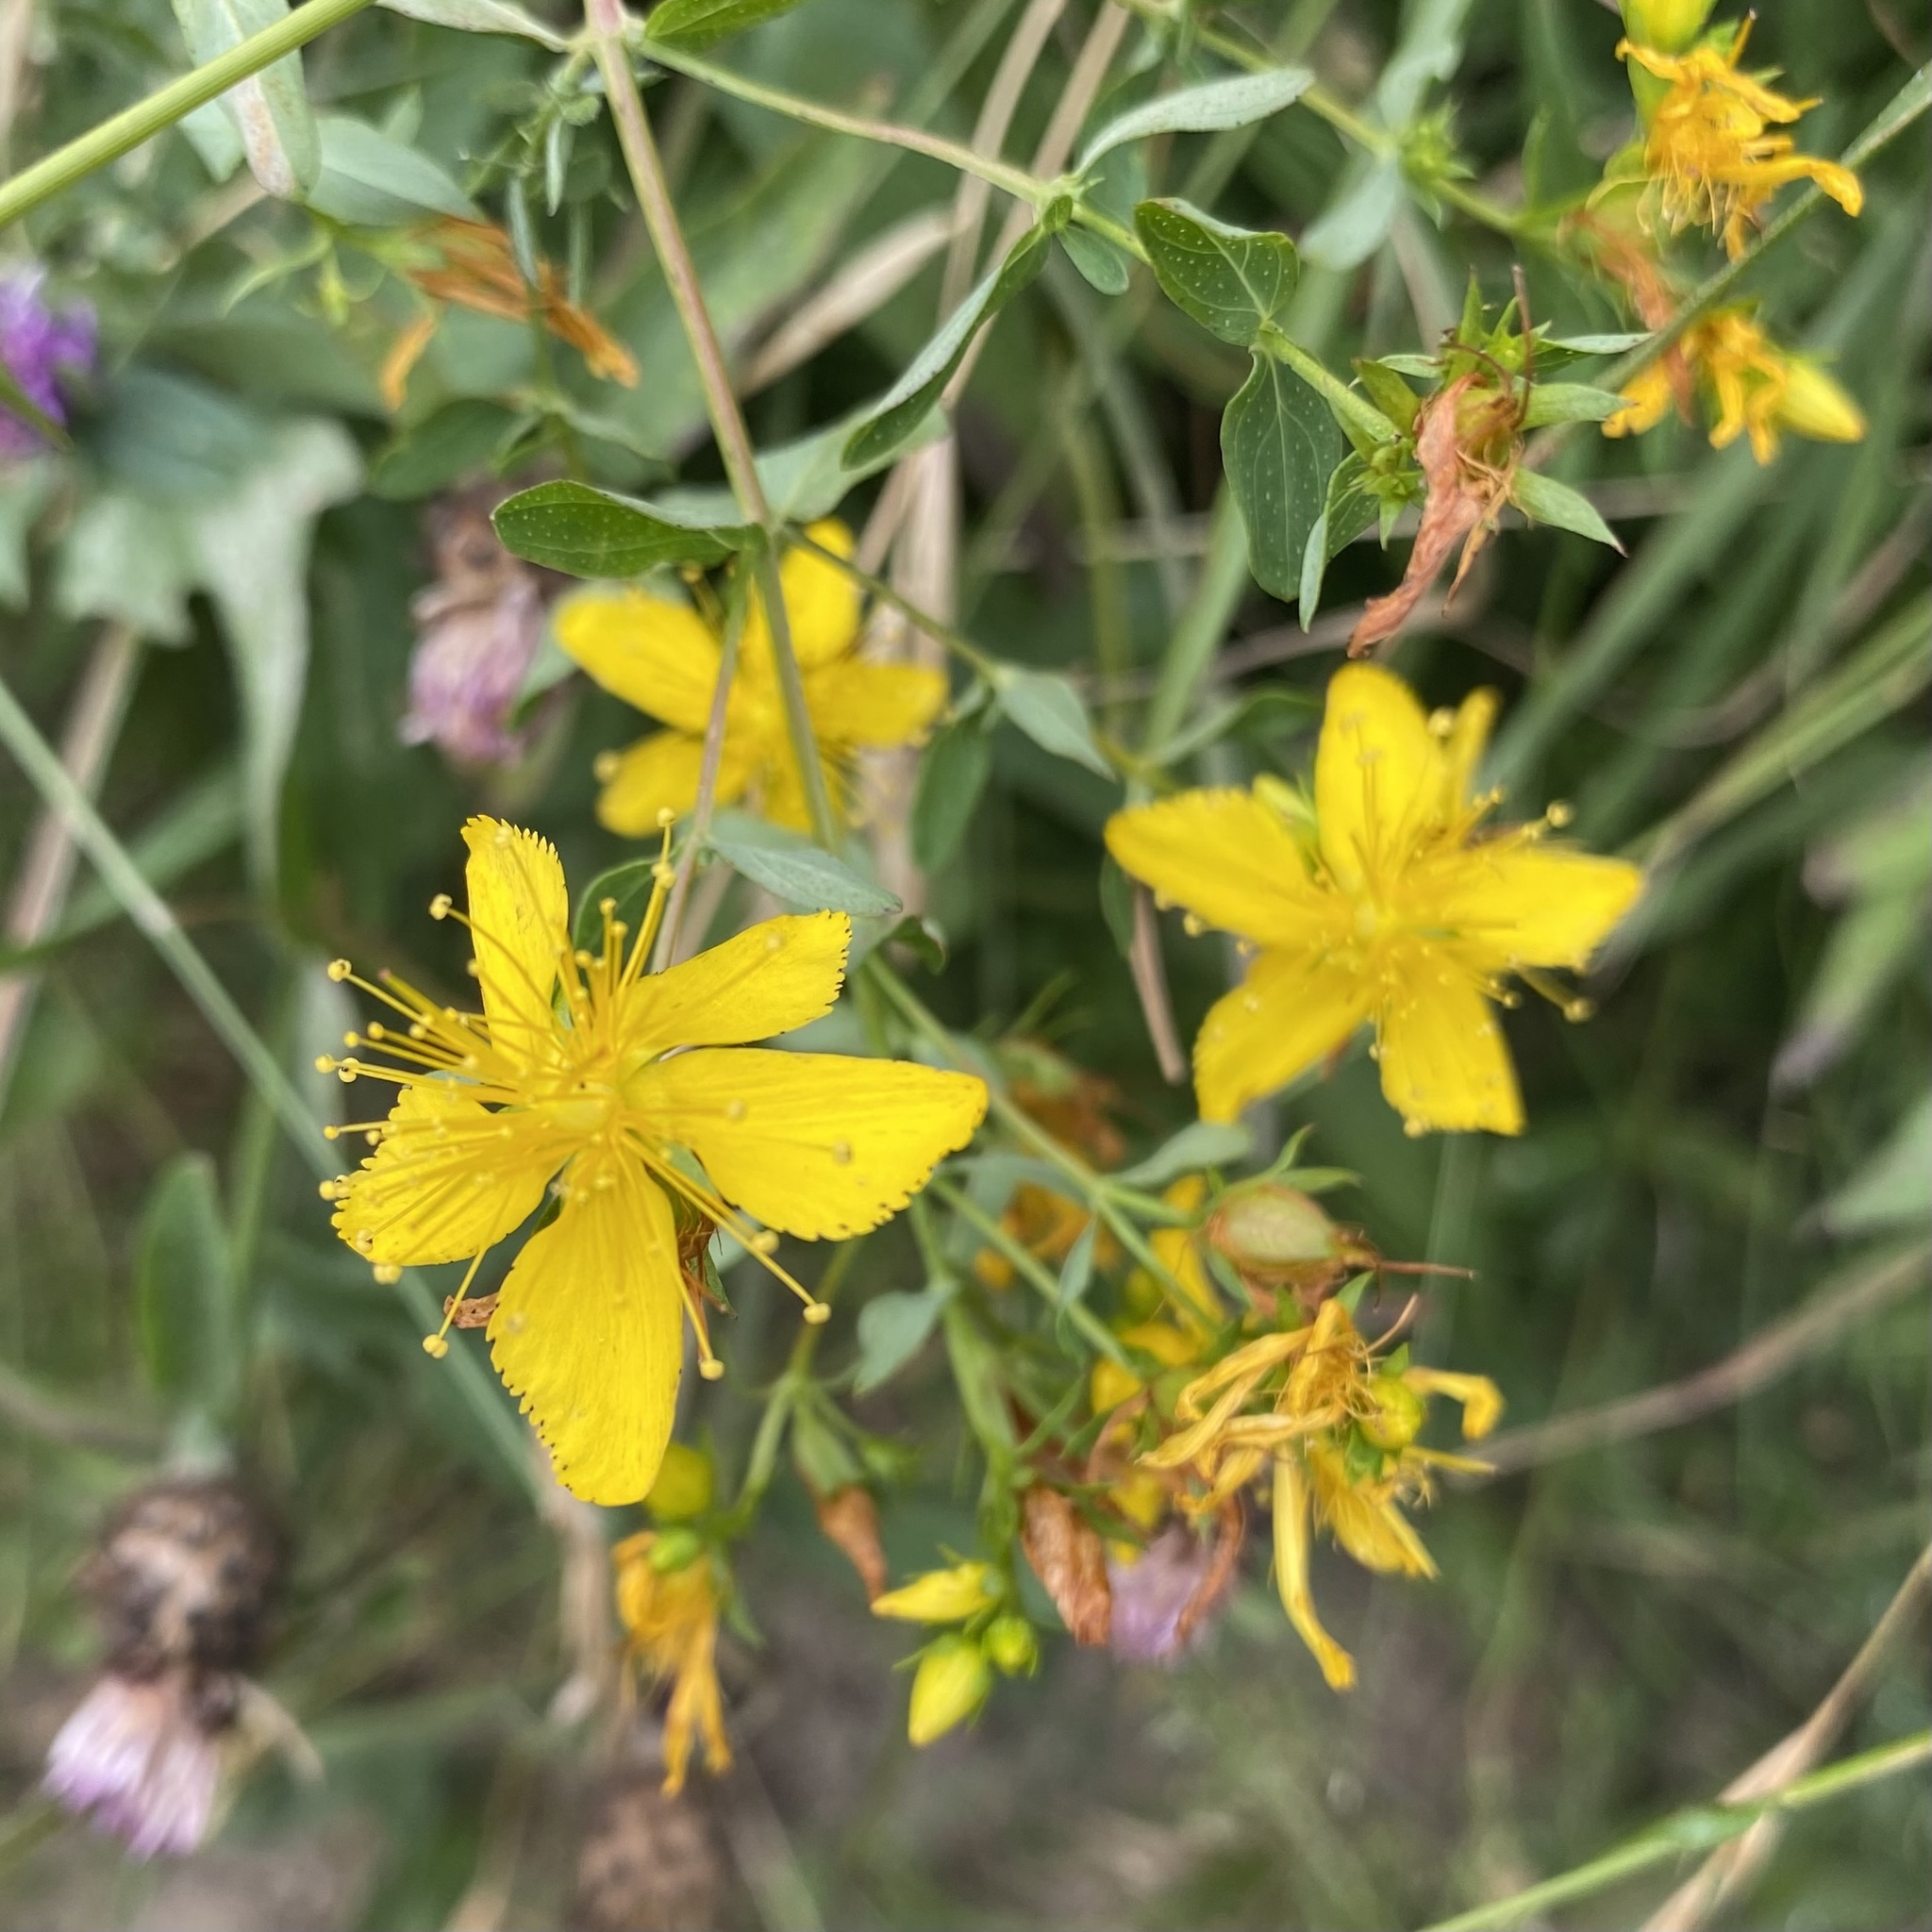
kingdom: Plantae
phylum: Tracheophyta
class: Magnoliopsida
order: Malpighiales
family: Hypericaceae
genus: Hypericum
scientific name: Hypericum perforatum
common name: Common st. johnswort
